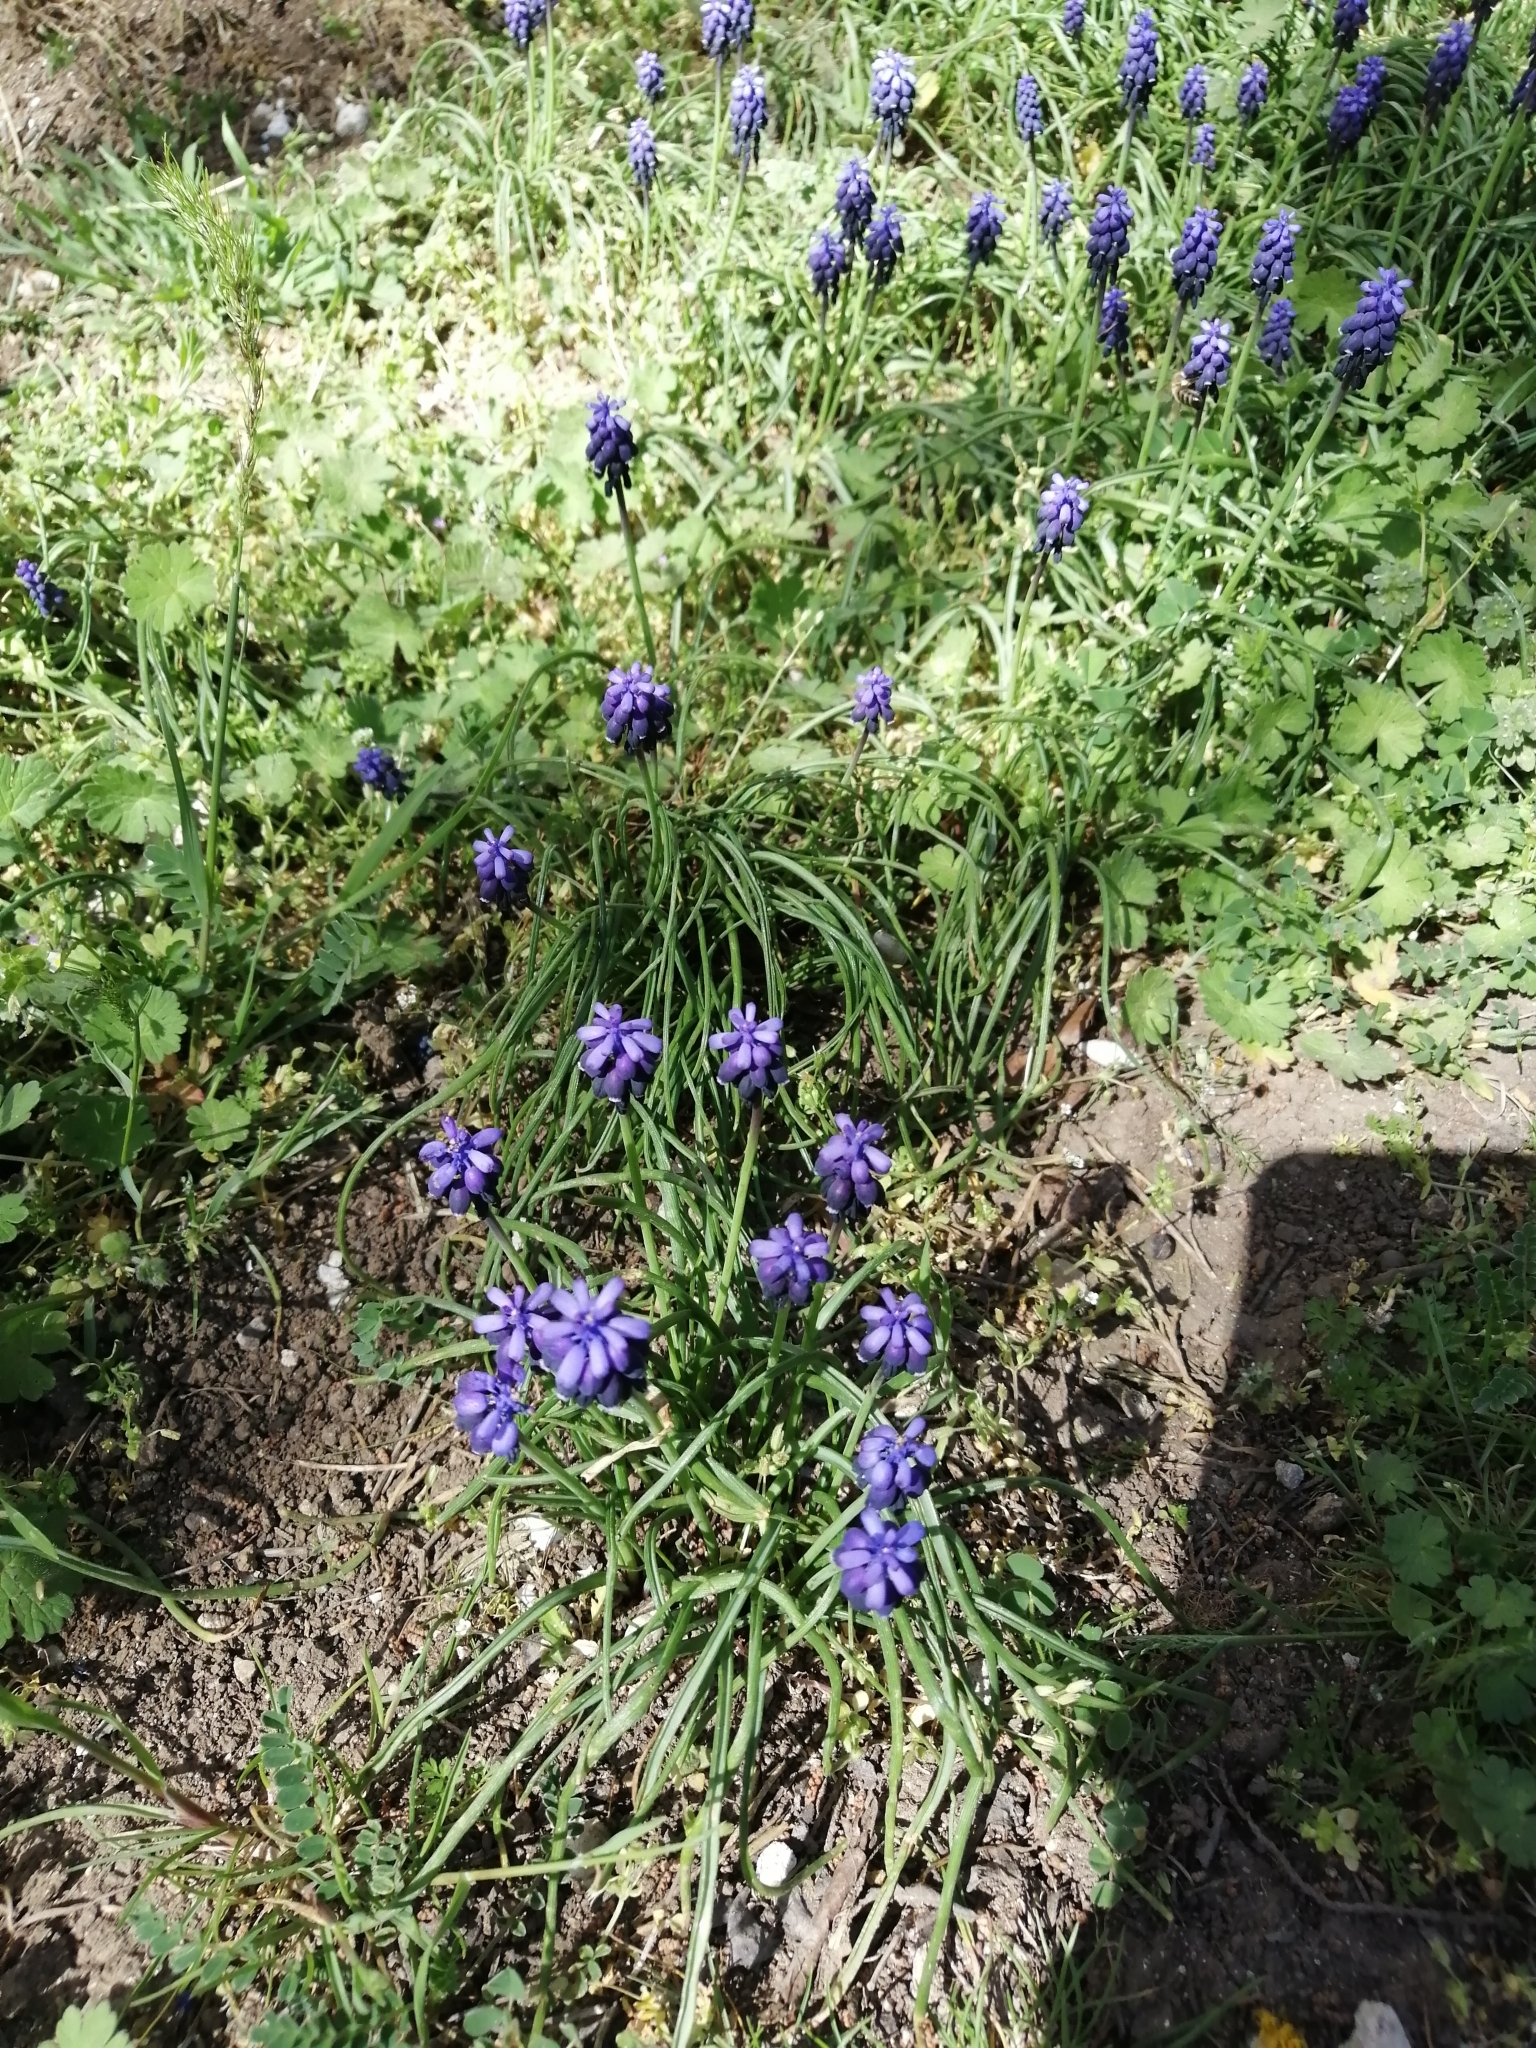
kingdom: Plantae
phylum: Tracheophyta
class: Liliopsida
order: Asparagales
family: Asparagaceae
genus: Muscari
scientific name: Muscari neglectum
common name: Grape-hyacinth
